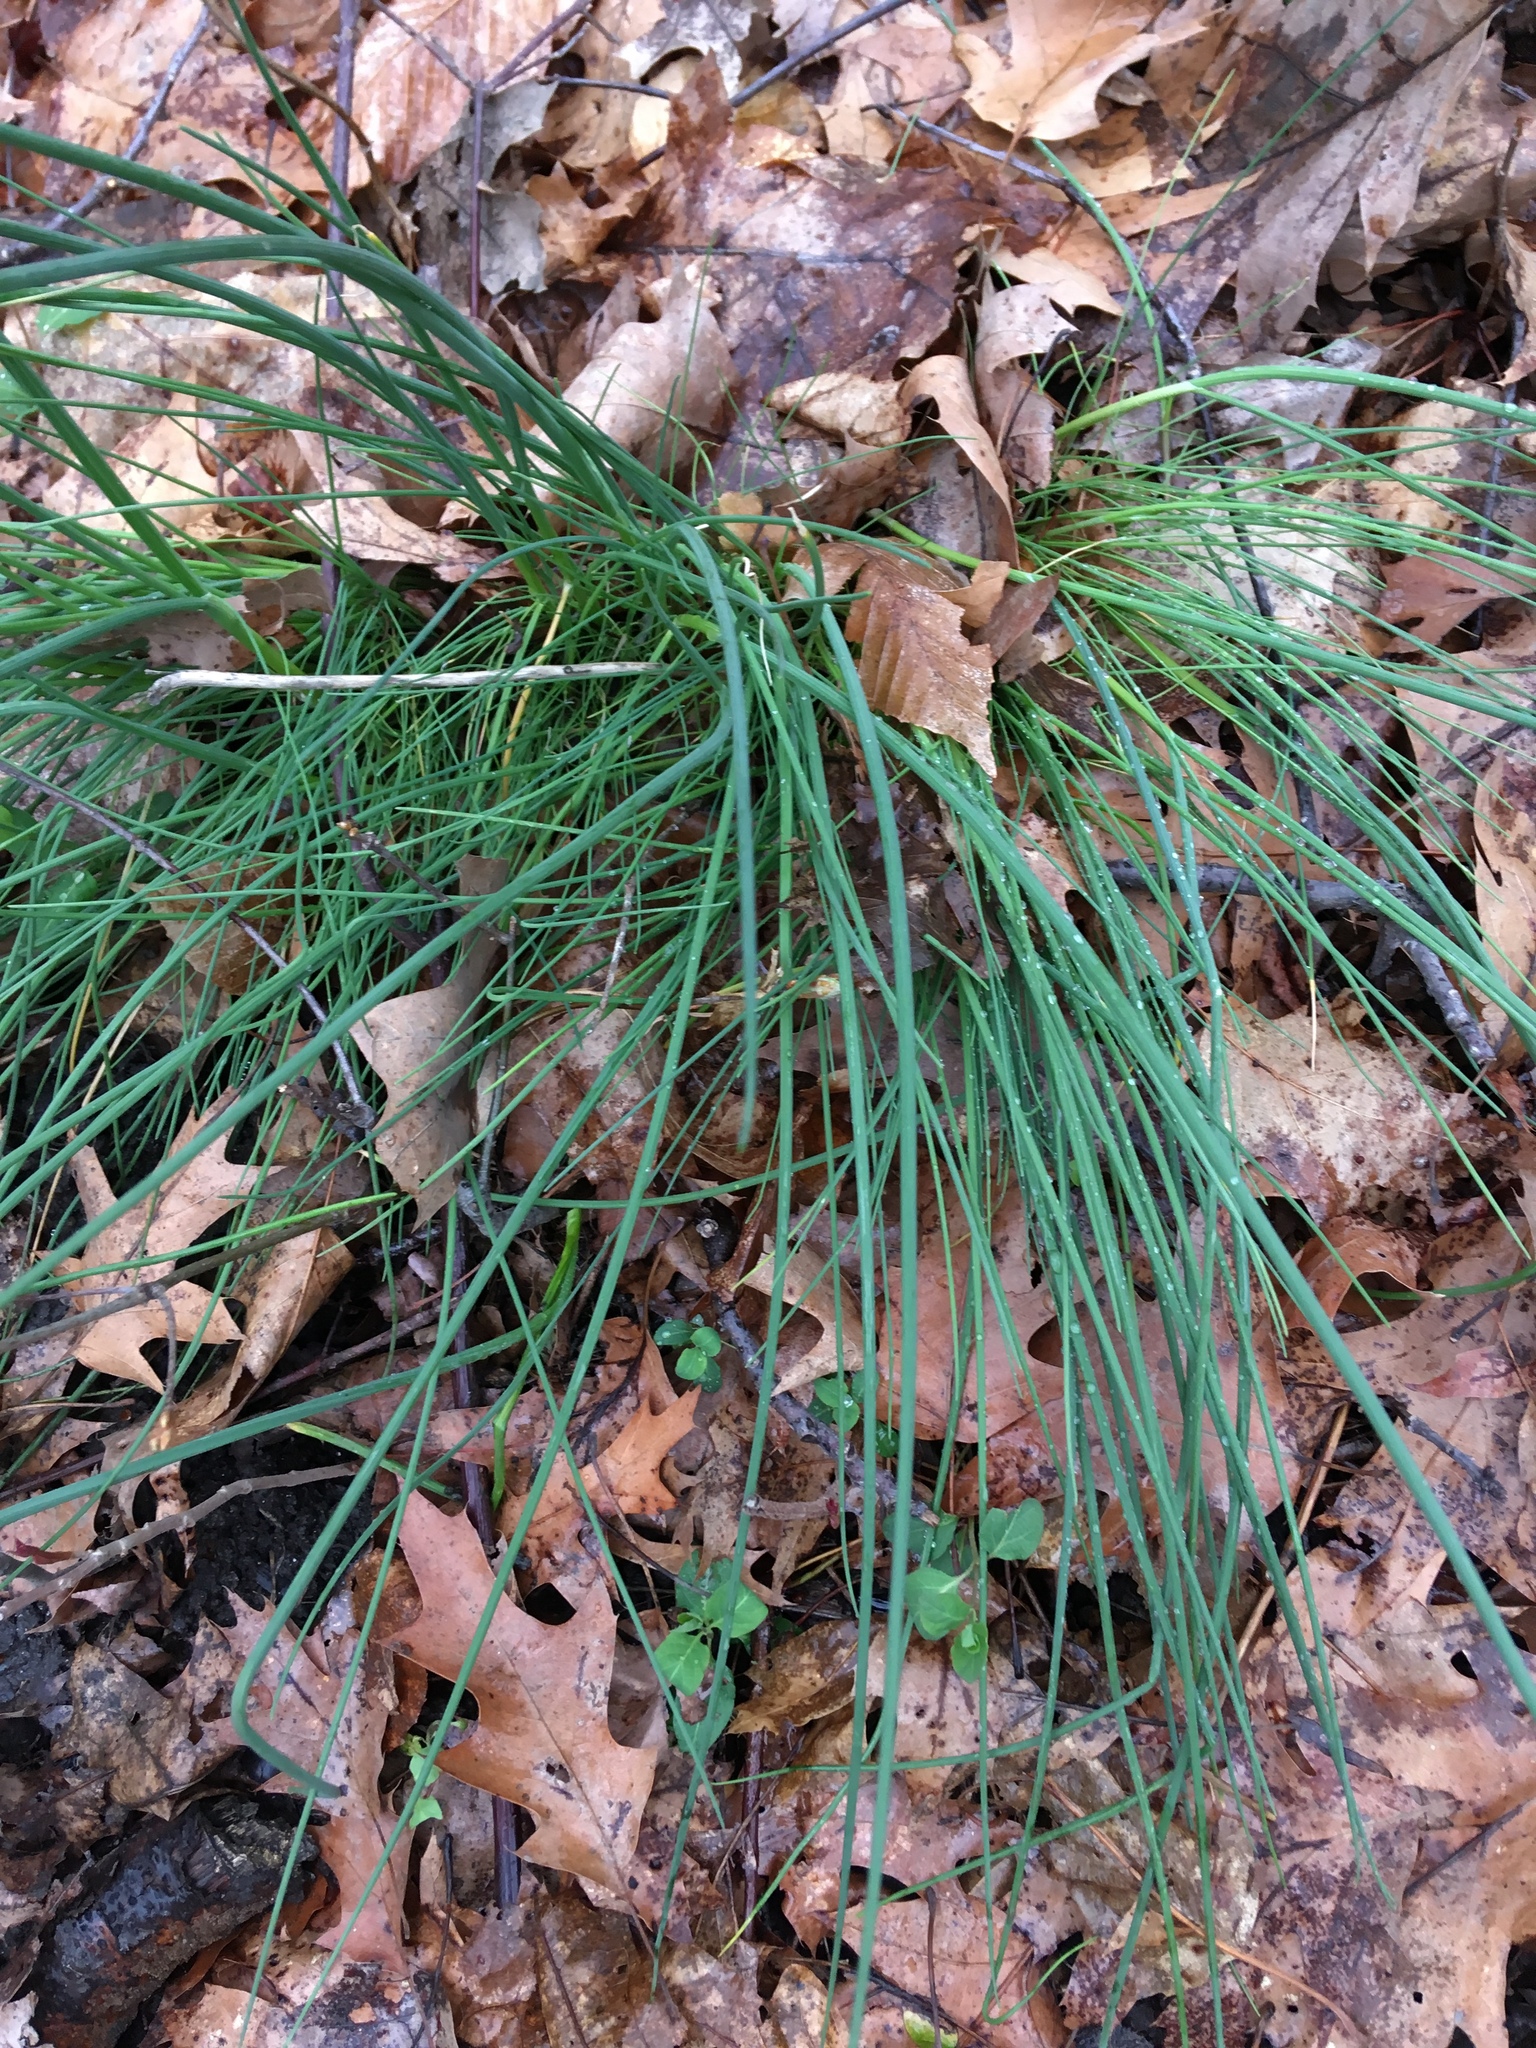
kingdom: Plantae
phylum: Tracheophyta
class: Liliopsida
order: Asparagales
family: Amaryllidaceae
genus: Allium
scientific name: Allium vineale
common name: Crow garlic
